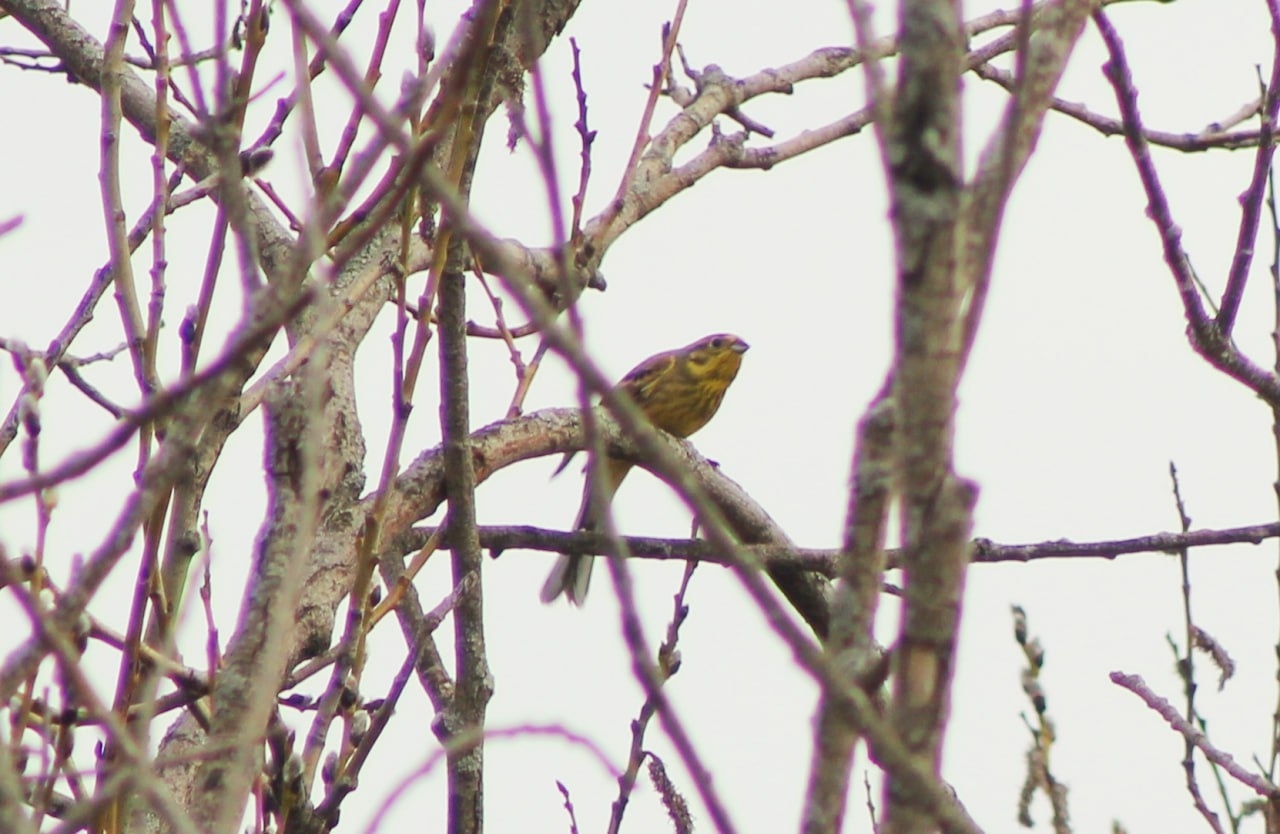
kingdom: Animalia
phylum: Chordata
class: Aves
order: Passeriformes
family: Emberizidae
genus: Emberiza
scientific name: Emberiza citrinella
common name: Yellowhammer
